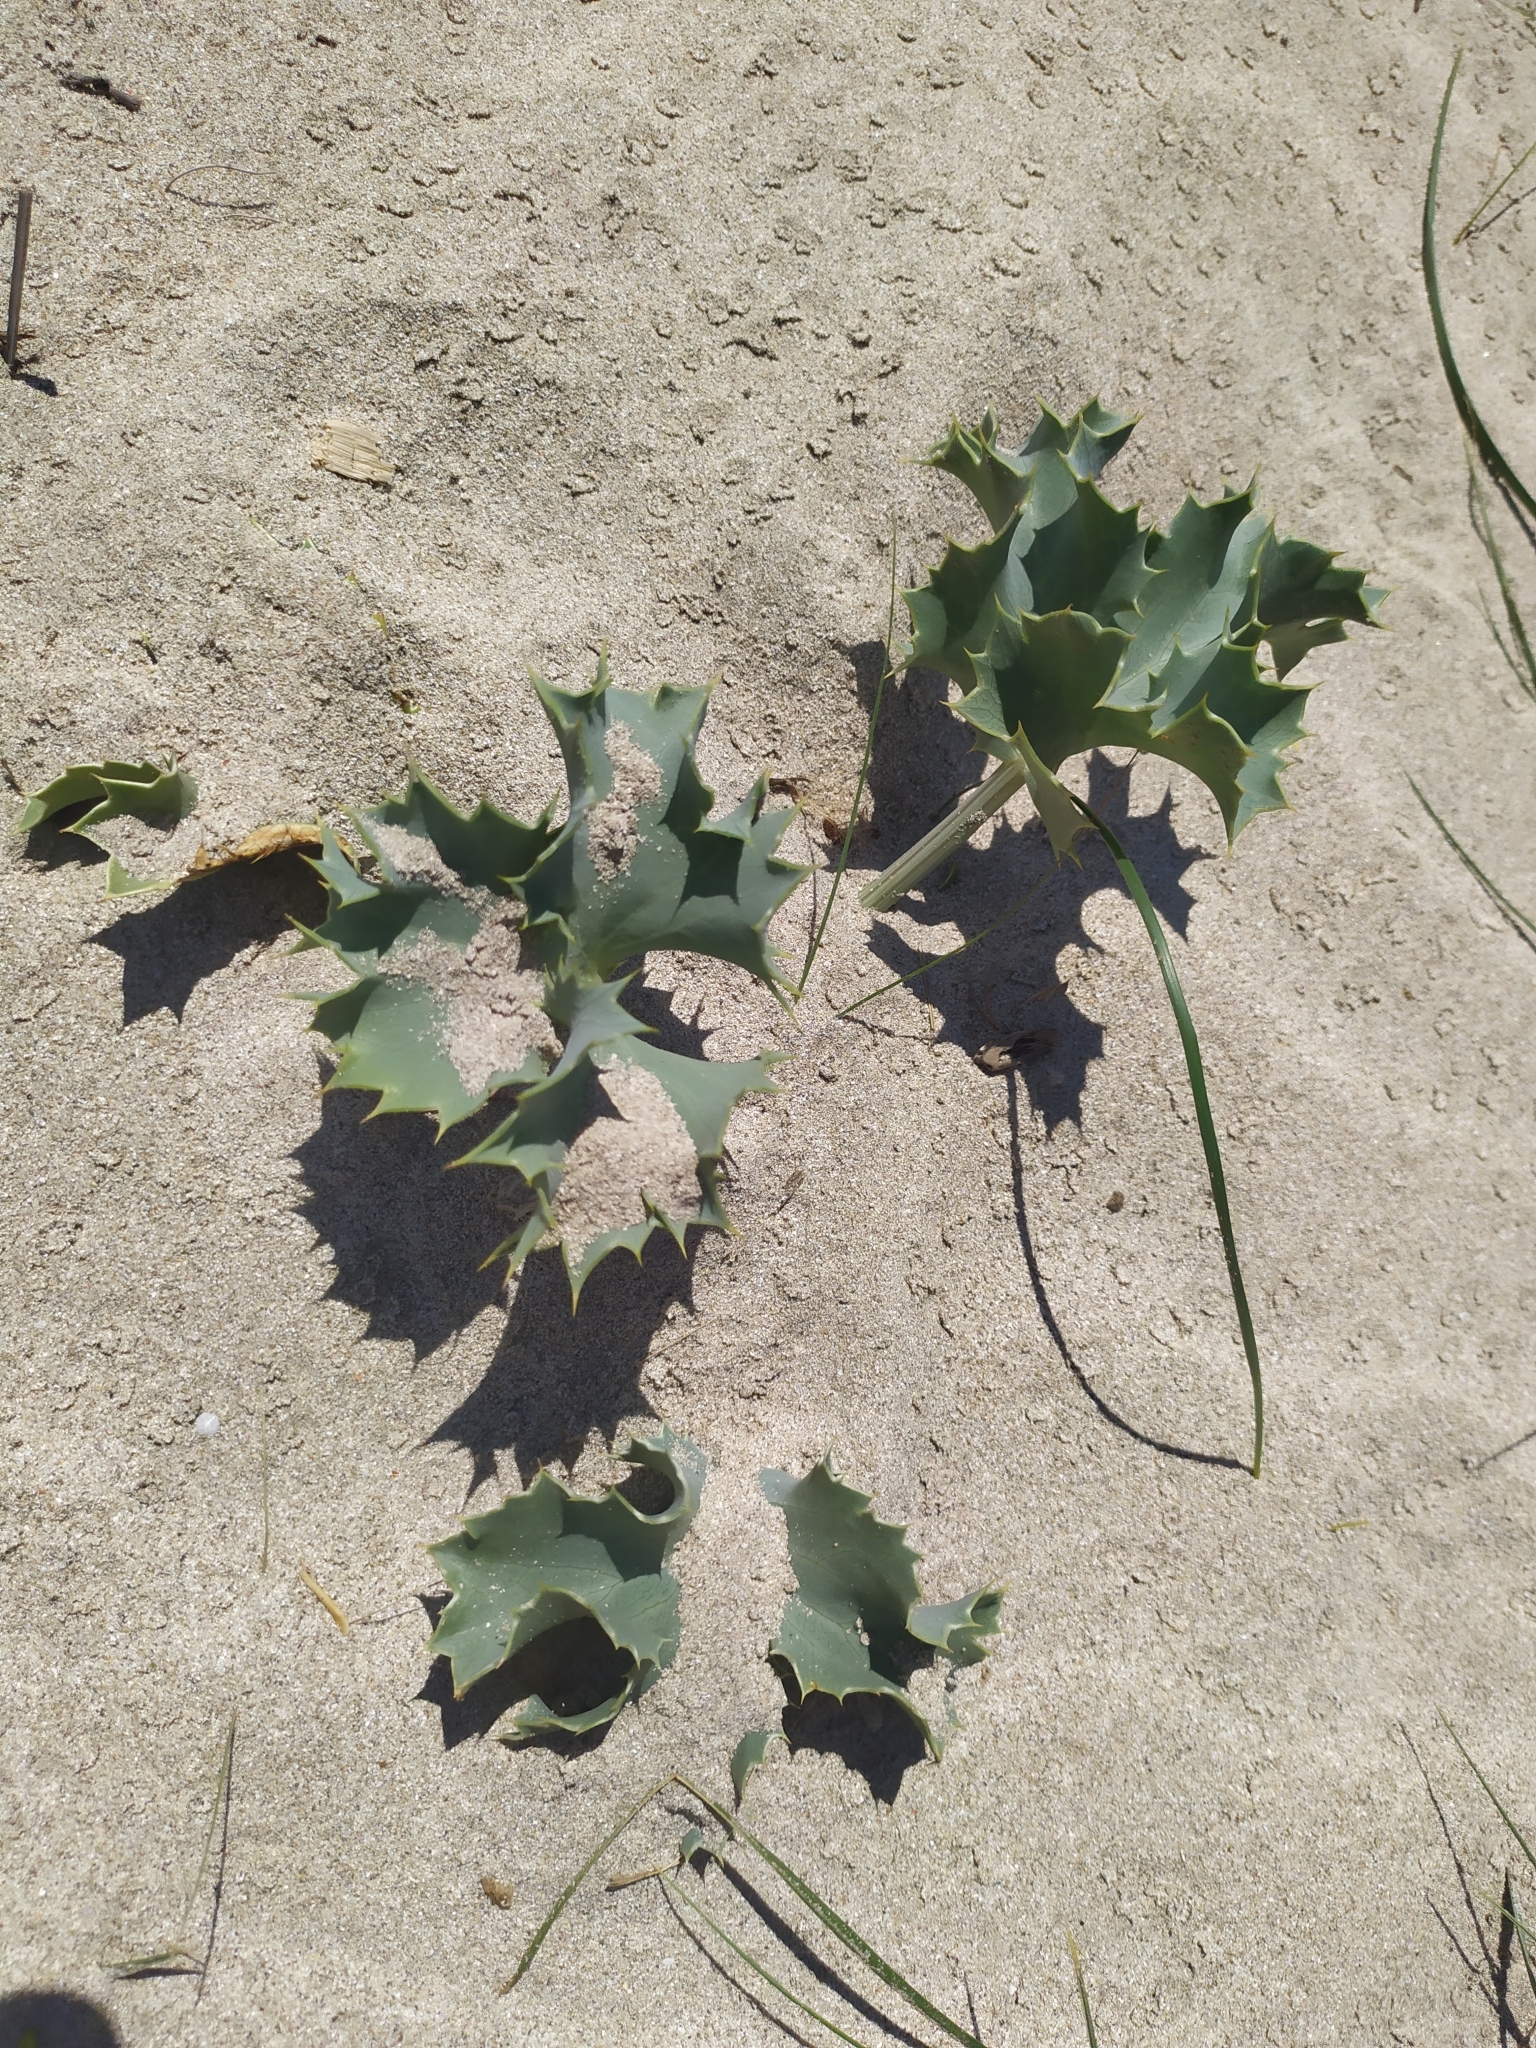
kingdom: Plantae
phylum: Tracheophyta
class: Magnoliopsida
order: Apiales
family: Apiaceae
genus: Eryngium
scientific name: Eryngium maritimum
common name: Sea-holly
